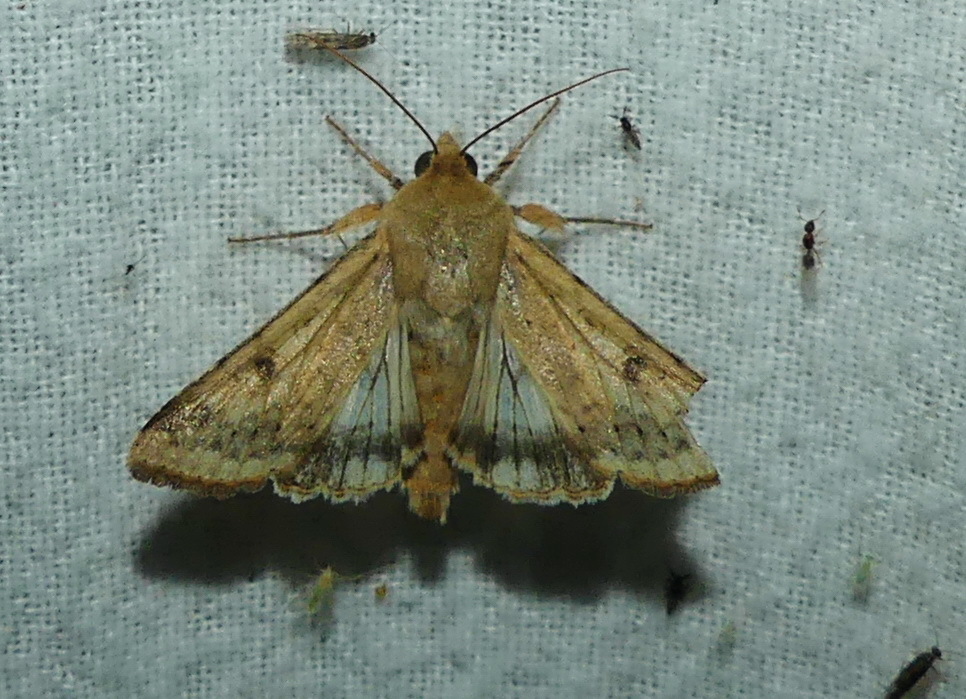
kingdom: Animalia
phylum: Arthropoda
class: Insecta
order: Lepidoptera
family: Noctuidae
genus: Helicoverpa
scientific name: Helicoverpa zea
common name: Bollworm
